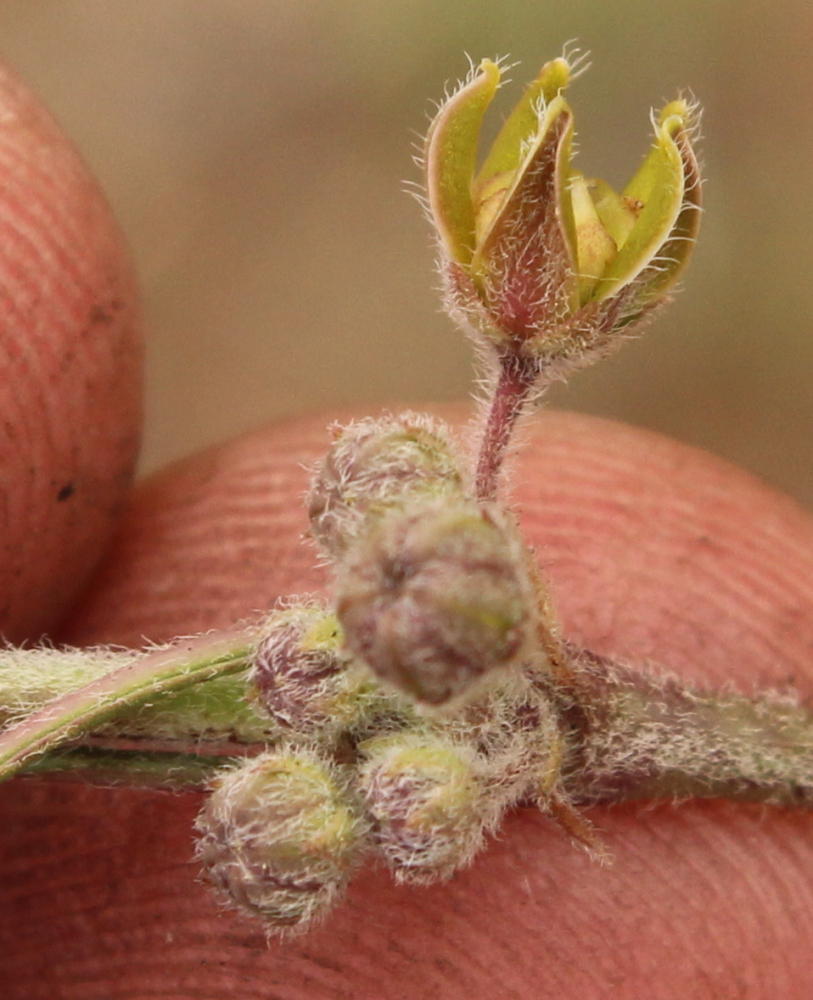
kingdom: Plantae
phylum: Tracheophyta
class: Magnoliopsida
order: Gentianales
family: Apocynaceae
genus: Aspidoglossum
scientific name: Aspidoglossum glabrescens
